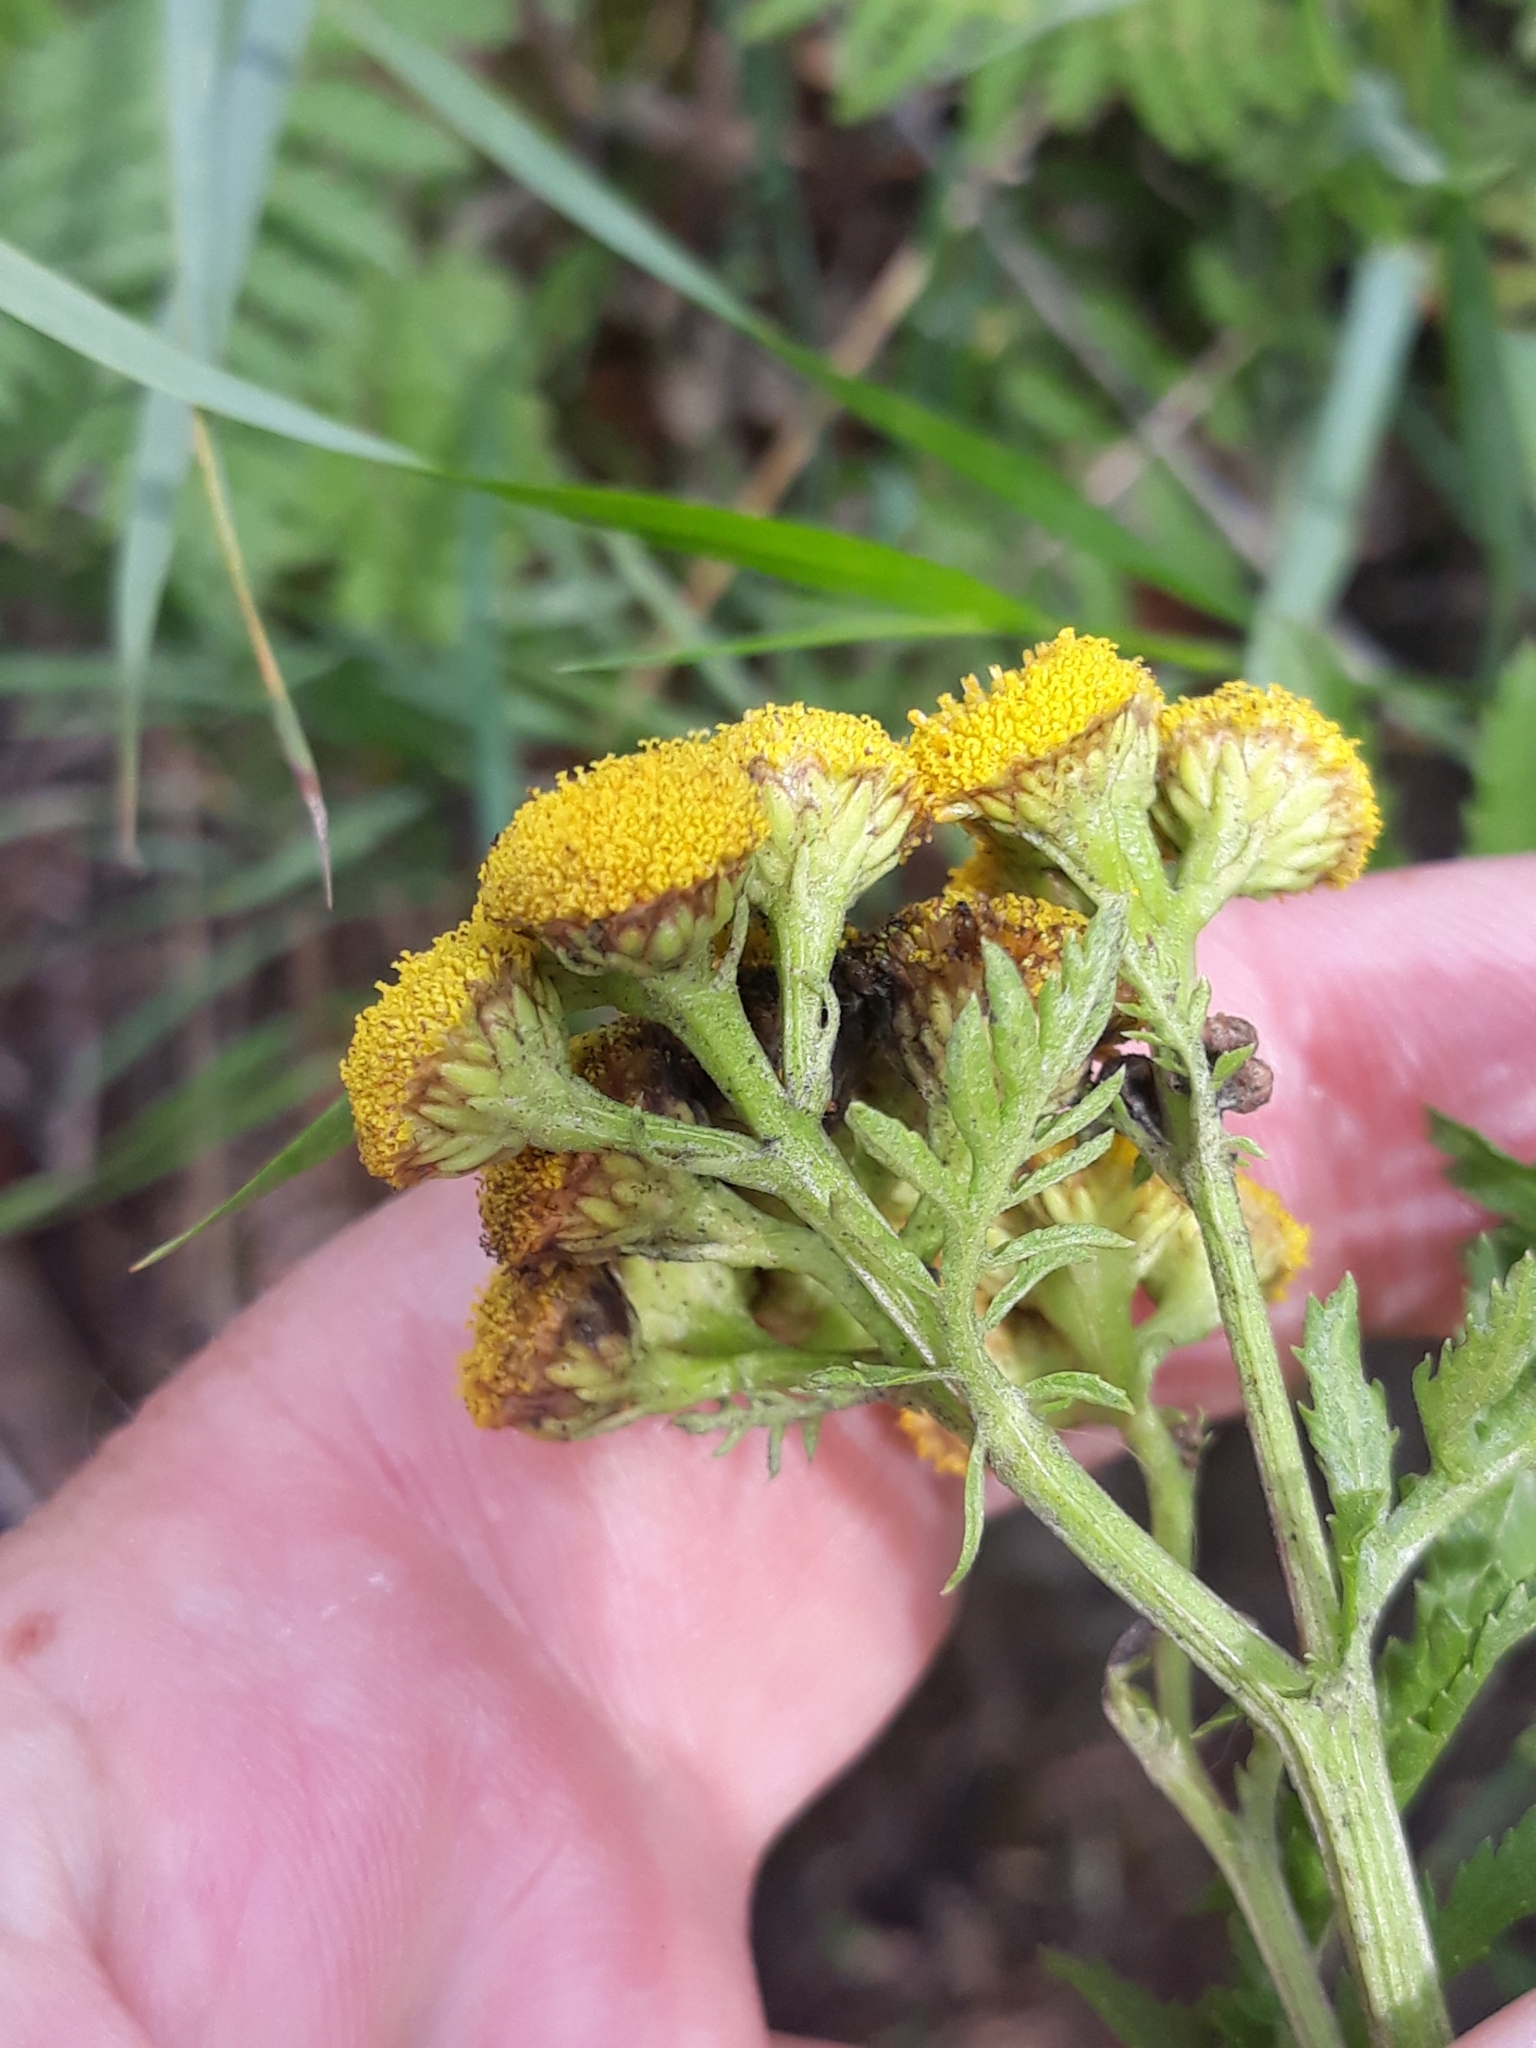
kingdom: Plantae
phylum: Tracheophyta
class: Magnoliopsida
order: Asterales
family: Asteraceae
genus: Tanacetum
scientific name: Tanacetum vulgare
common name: Common tansy
